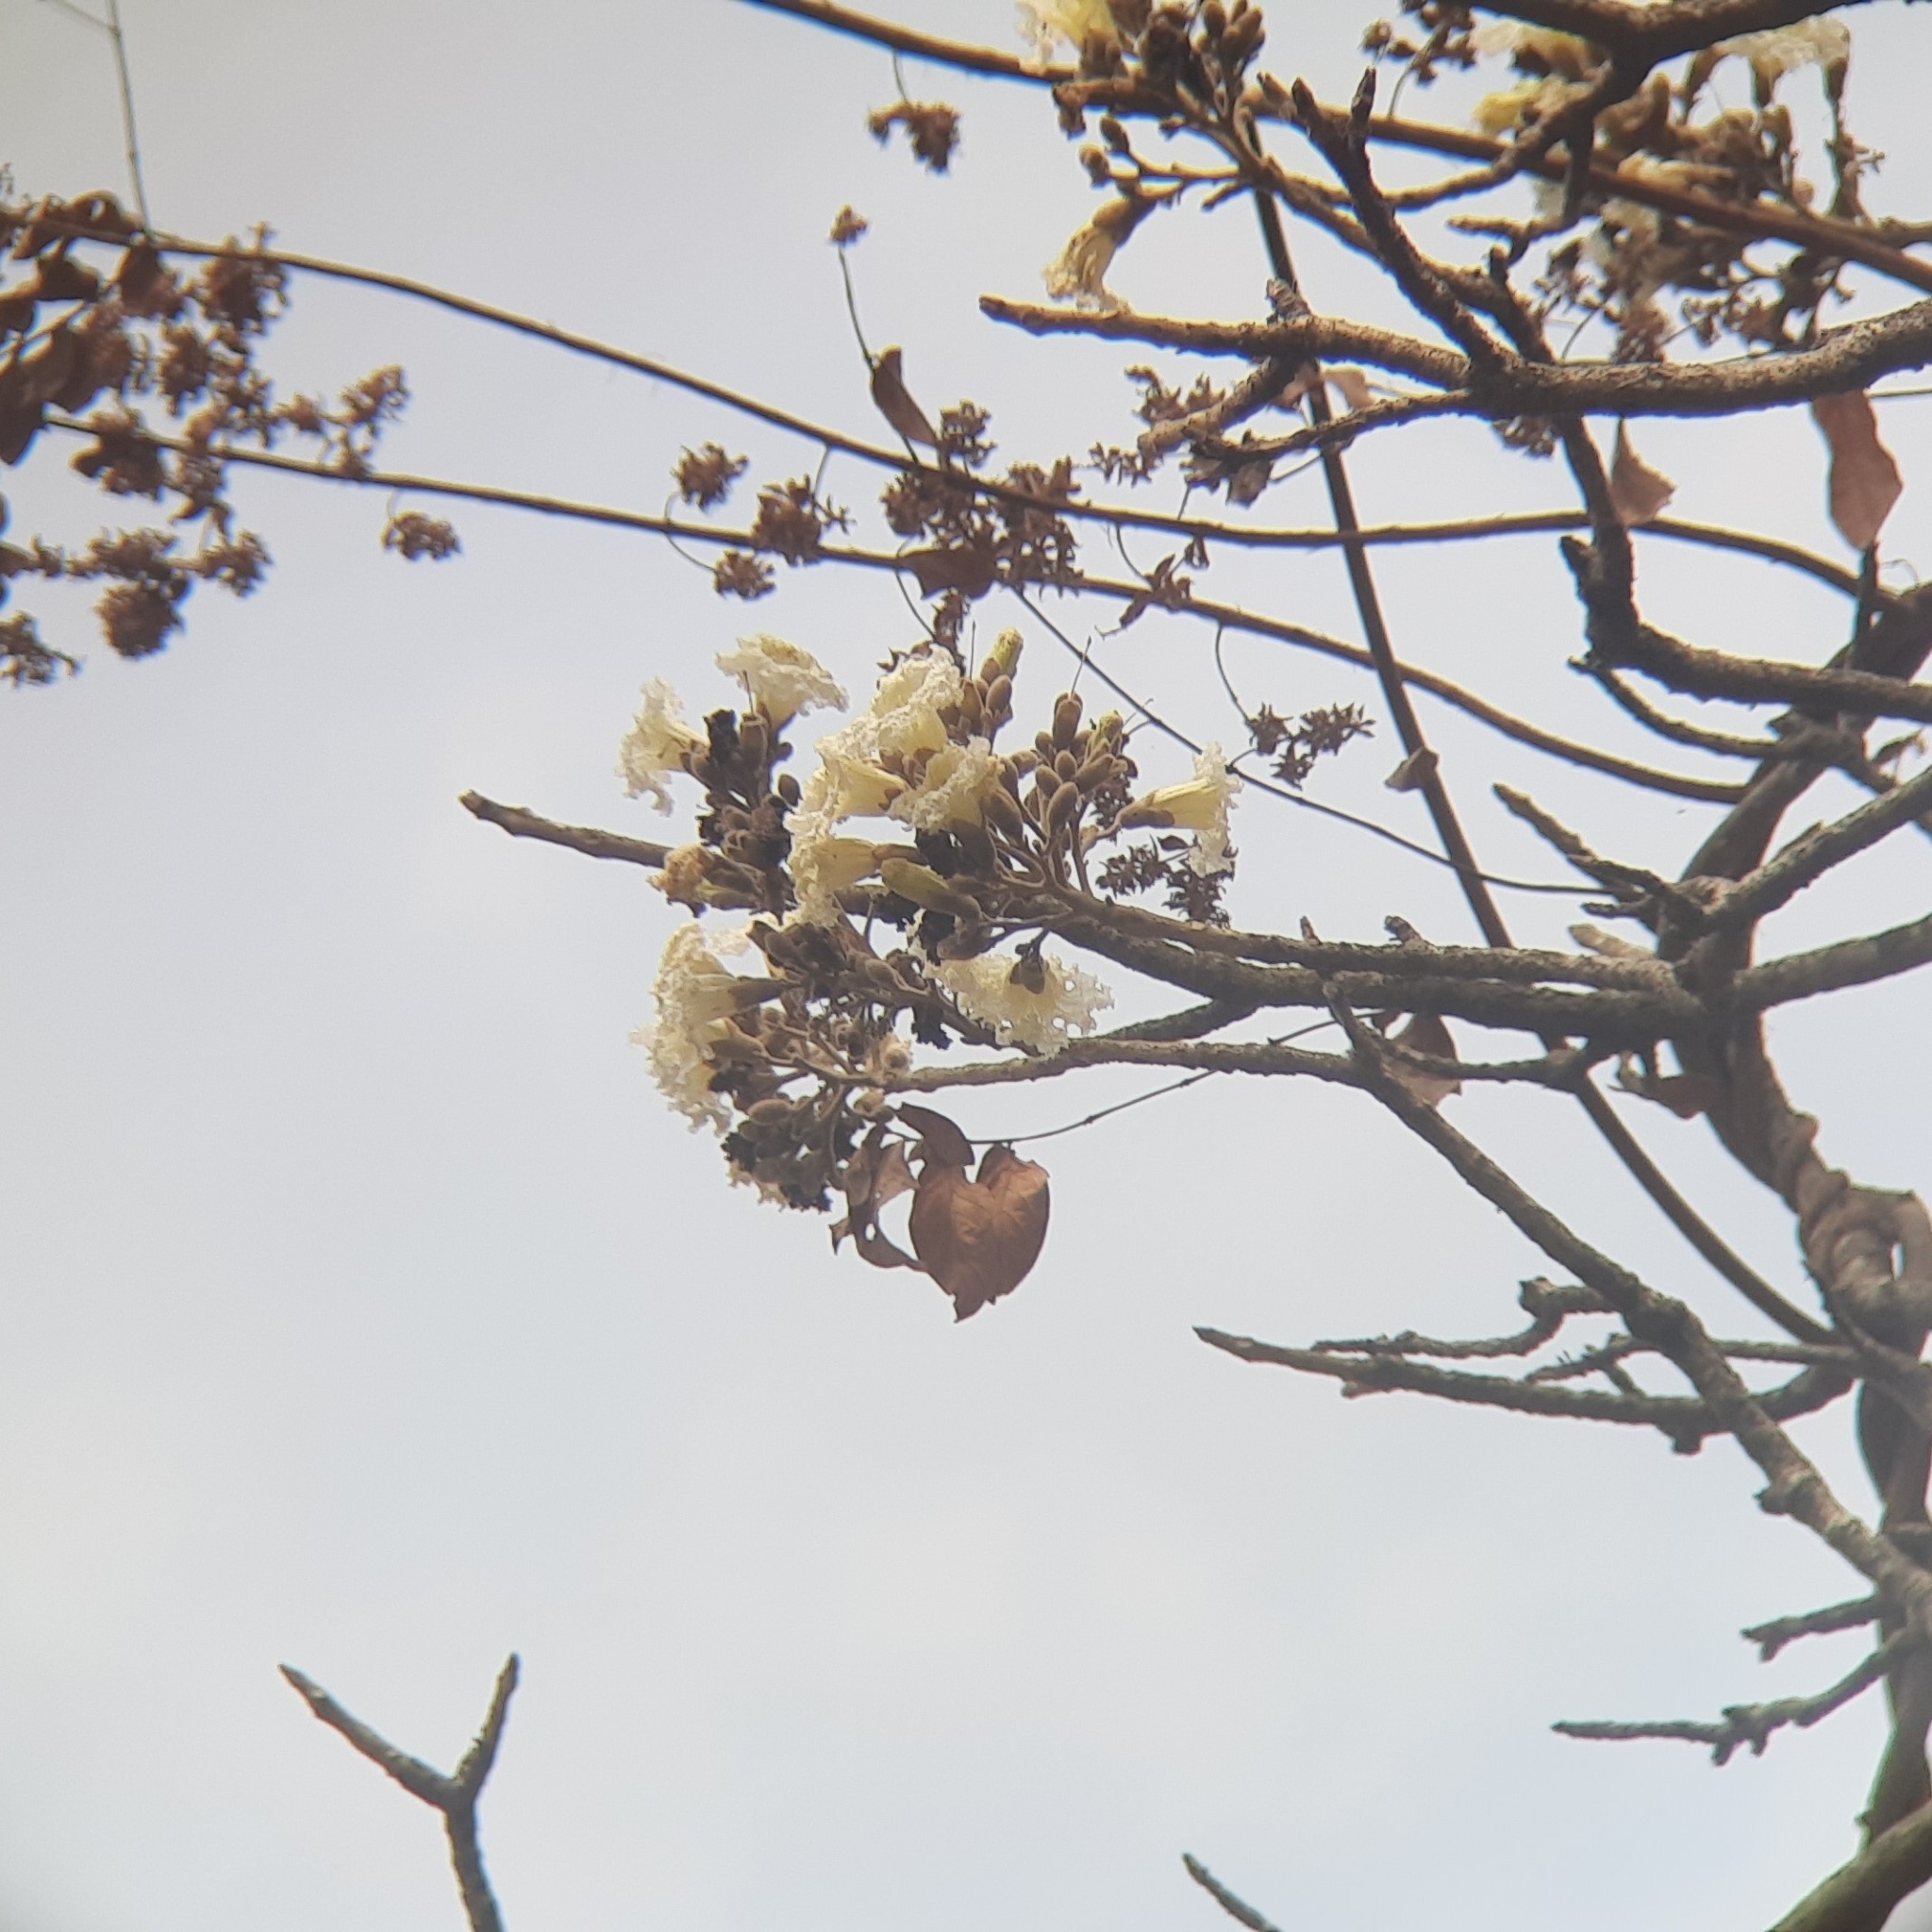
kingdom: Plantae
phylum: Tracheophyta
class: Magnoliopsida
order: Lamiales
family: Bignoniaceae
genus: Heterophragma
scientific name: Heterophragma quadriloculare
